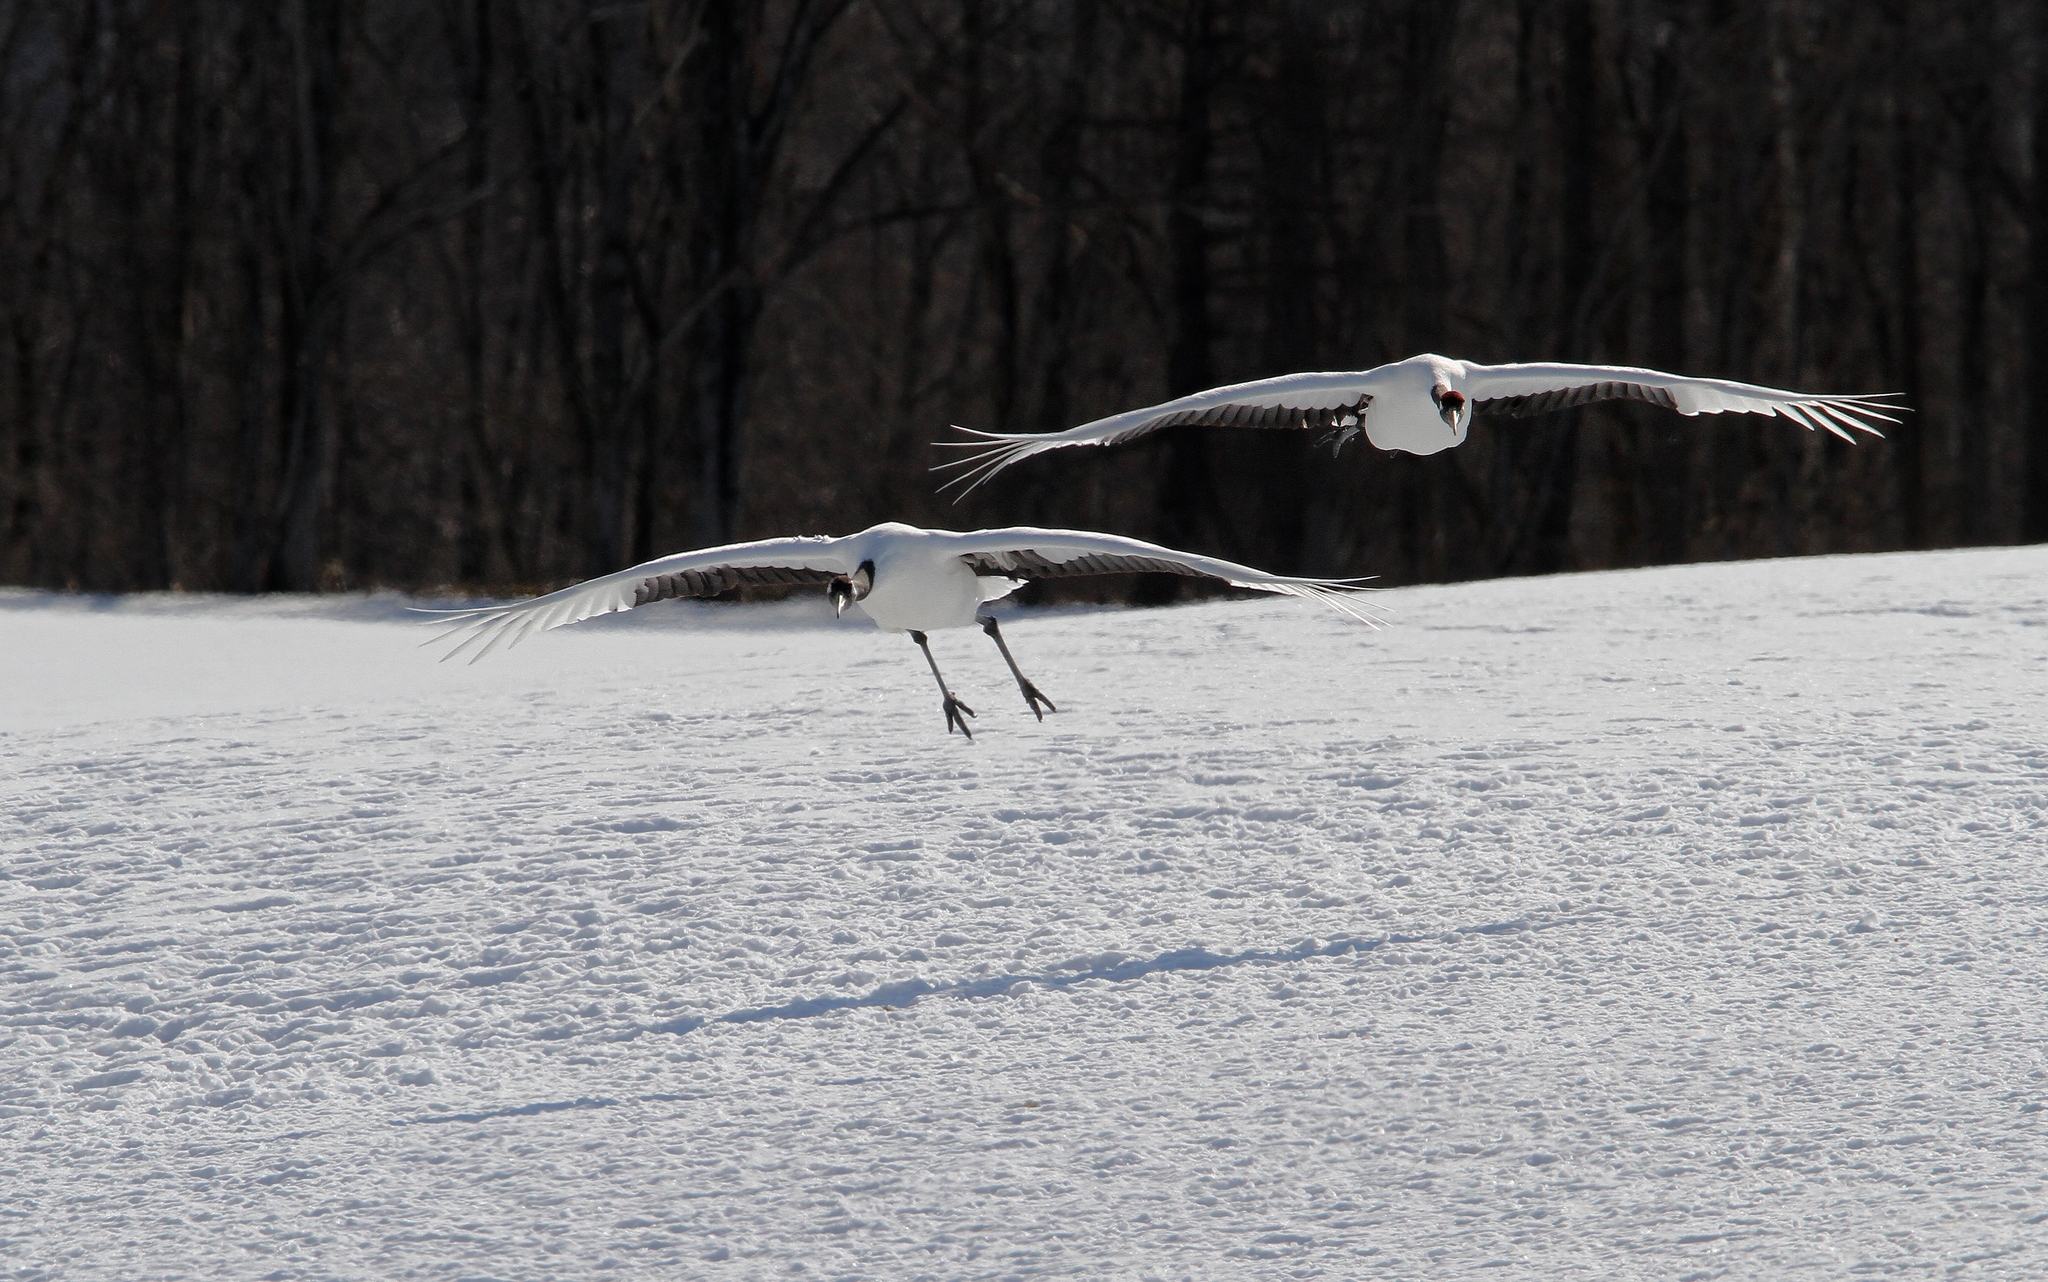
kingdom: Animalia
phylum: Chordata
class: Aves
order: Gruiformes
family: Gruidae
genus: Grus
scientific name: Grus japonensis
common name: Red-crowned crane
